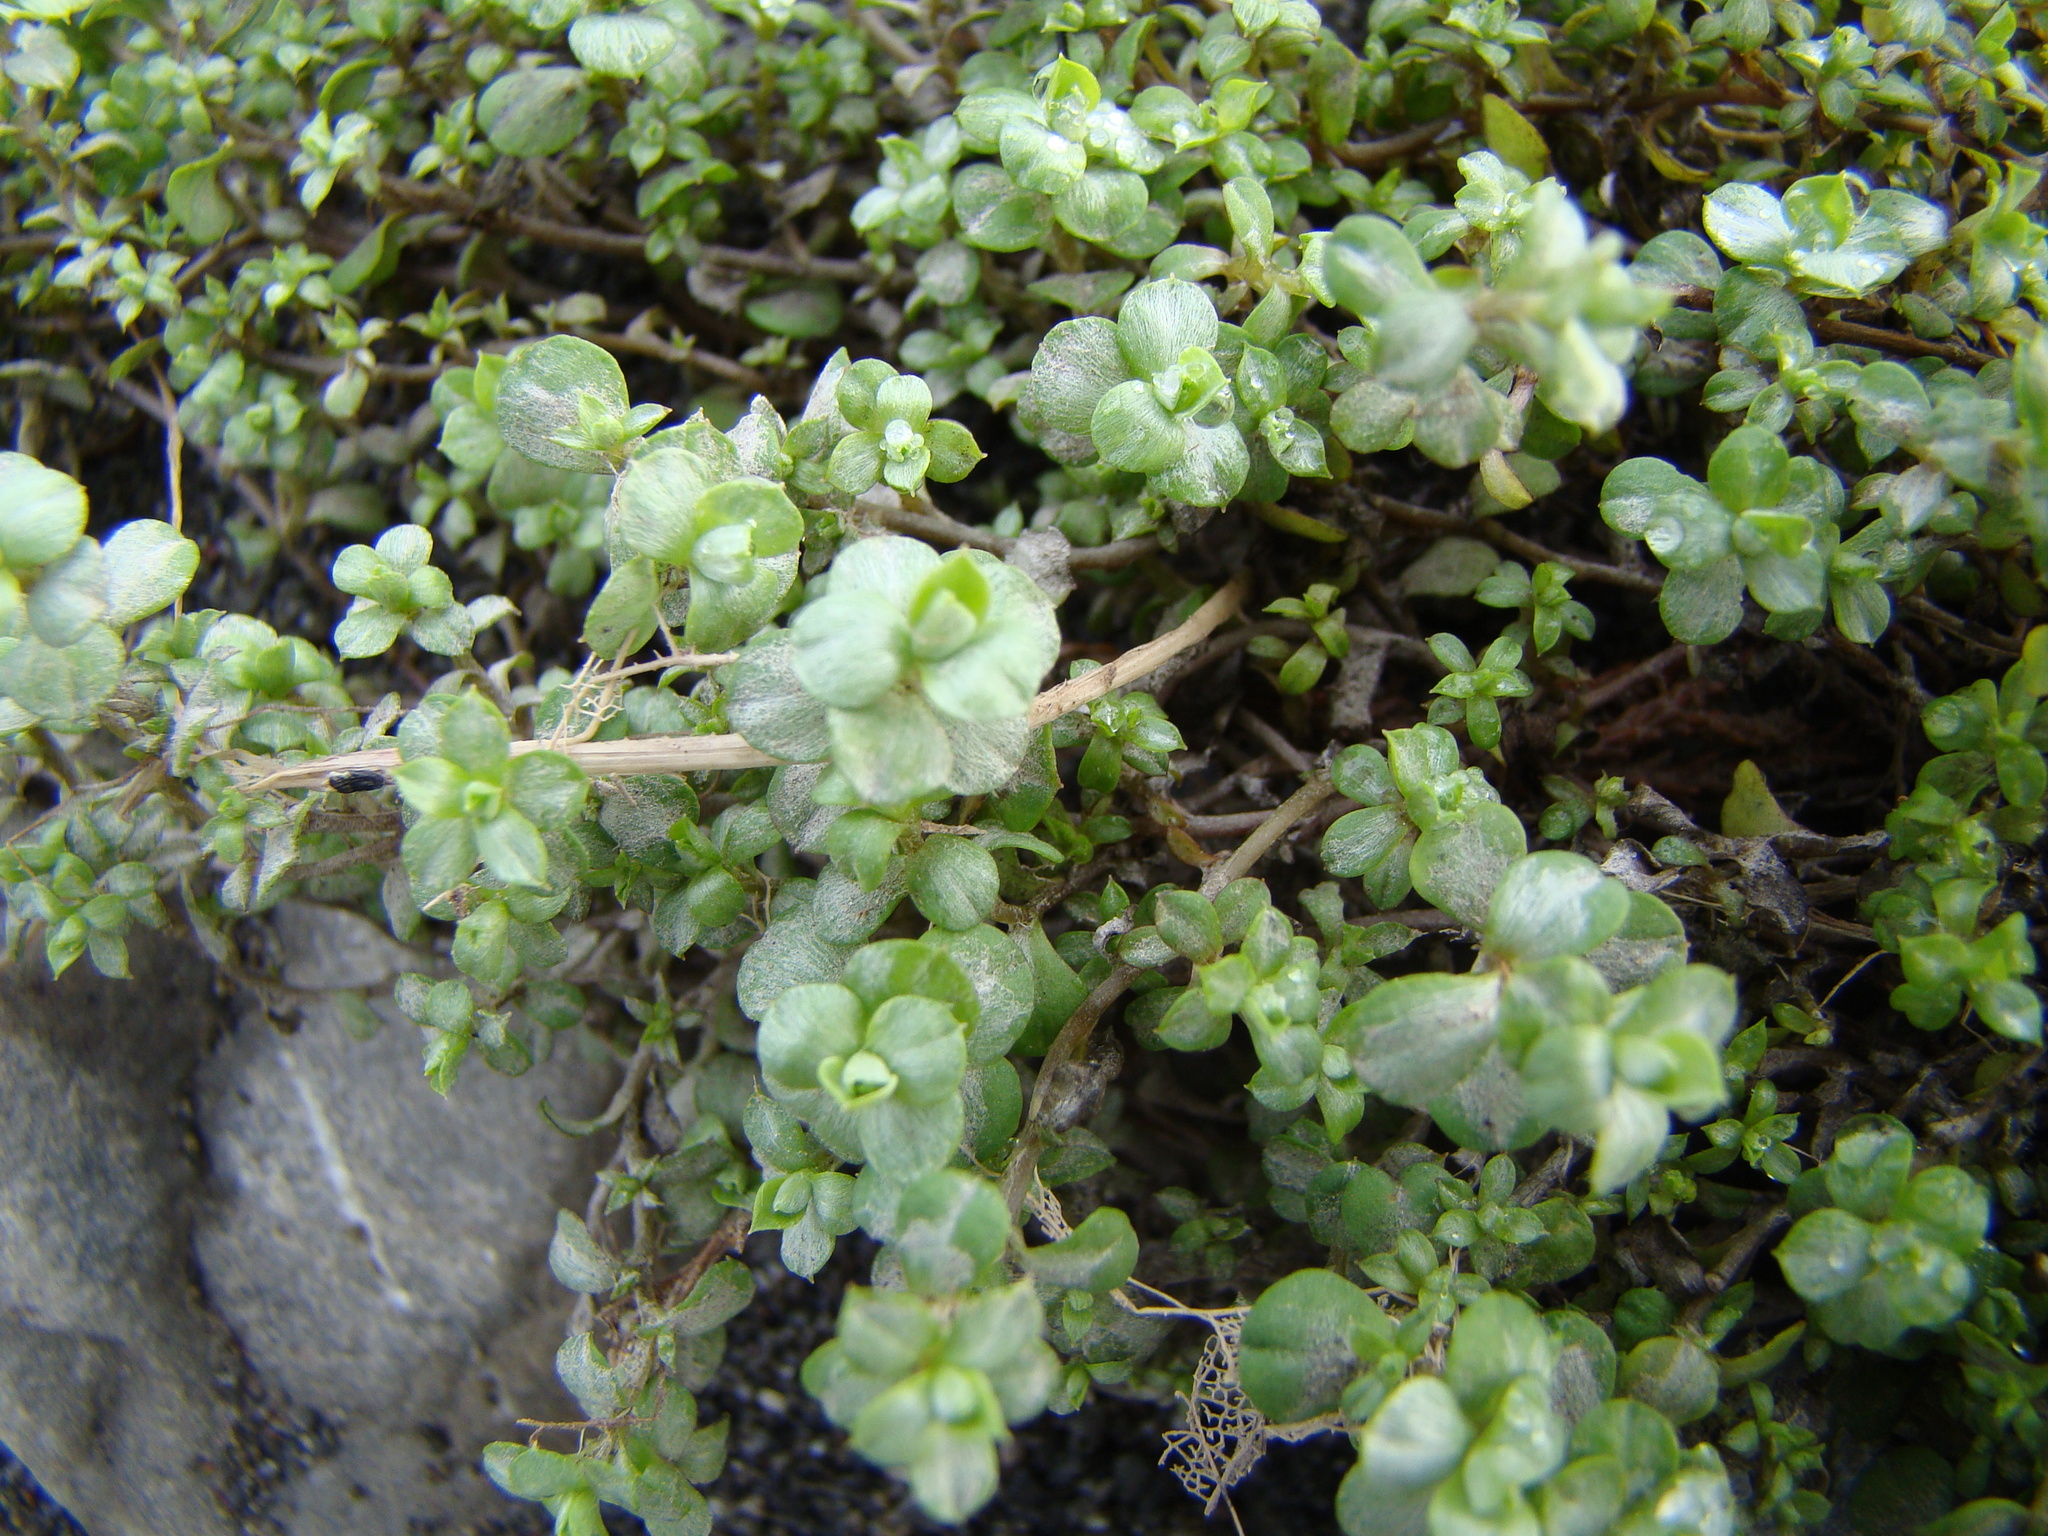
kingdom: Plantae
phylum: Tracheophyta
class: Magnoliopsida
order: Asterales
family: Asteraceae
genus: Anaphalioides
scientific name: Anaphalioides alpina
